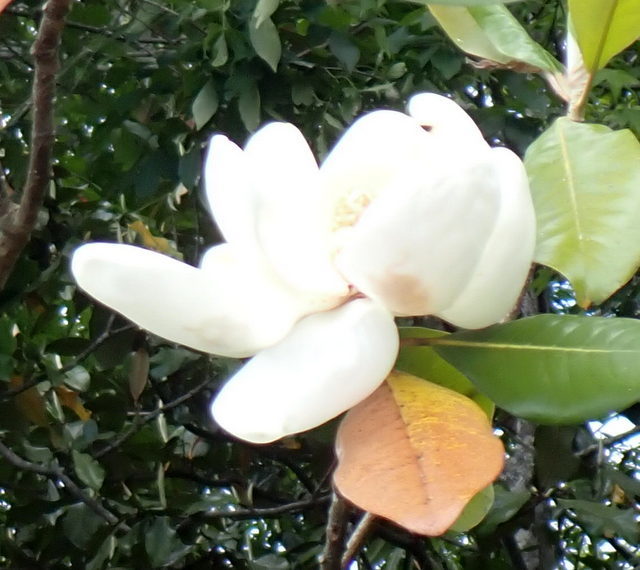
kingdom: Plantae
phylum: Tracheophyta
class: Magnoliopsida
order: Magnoliales
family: Magnoliaceae
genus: Magnolia
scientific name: Magnolia grandiflora
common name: Southern magnolia
